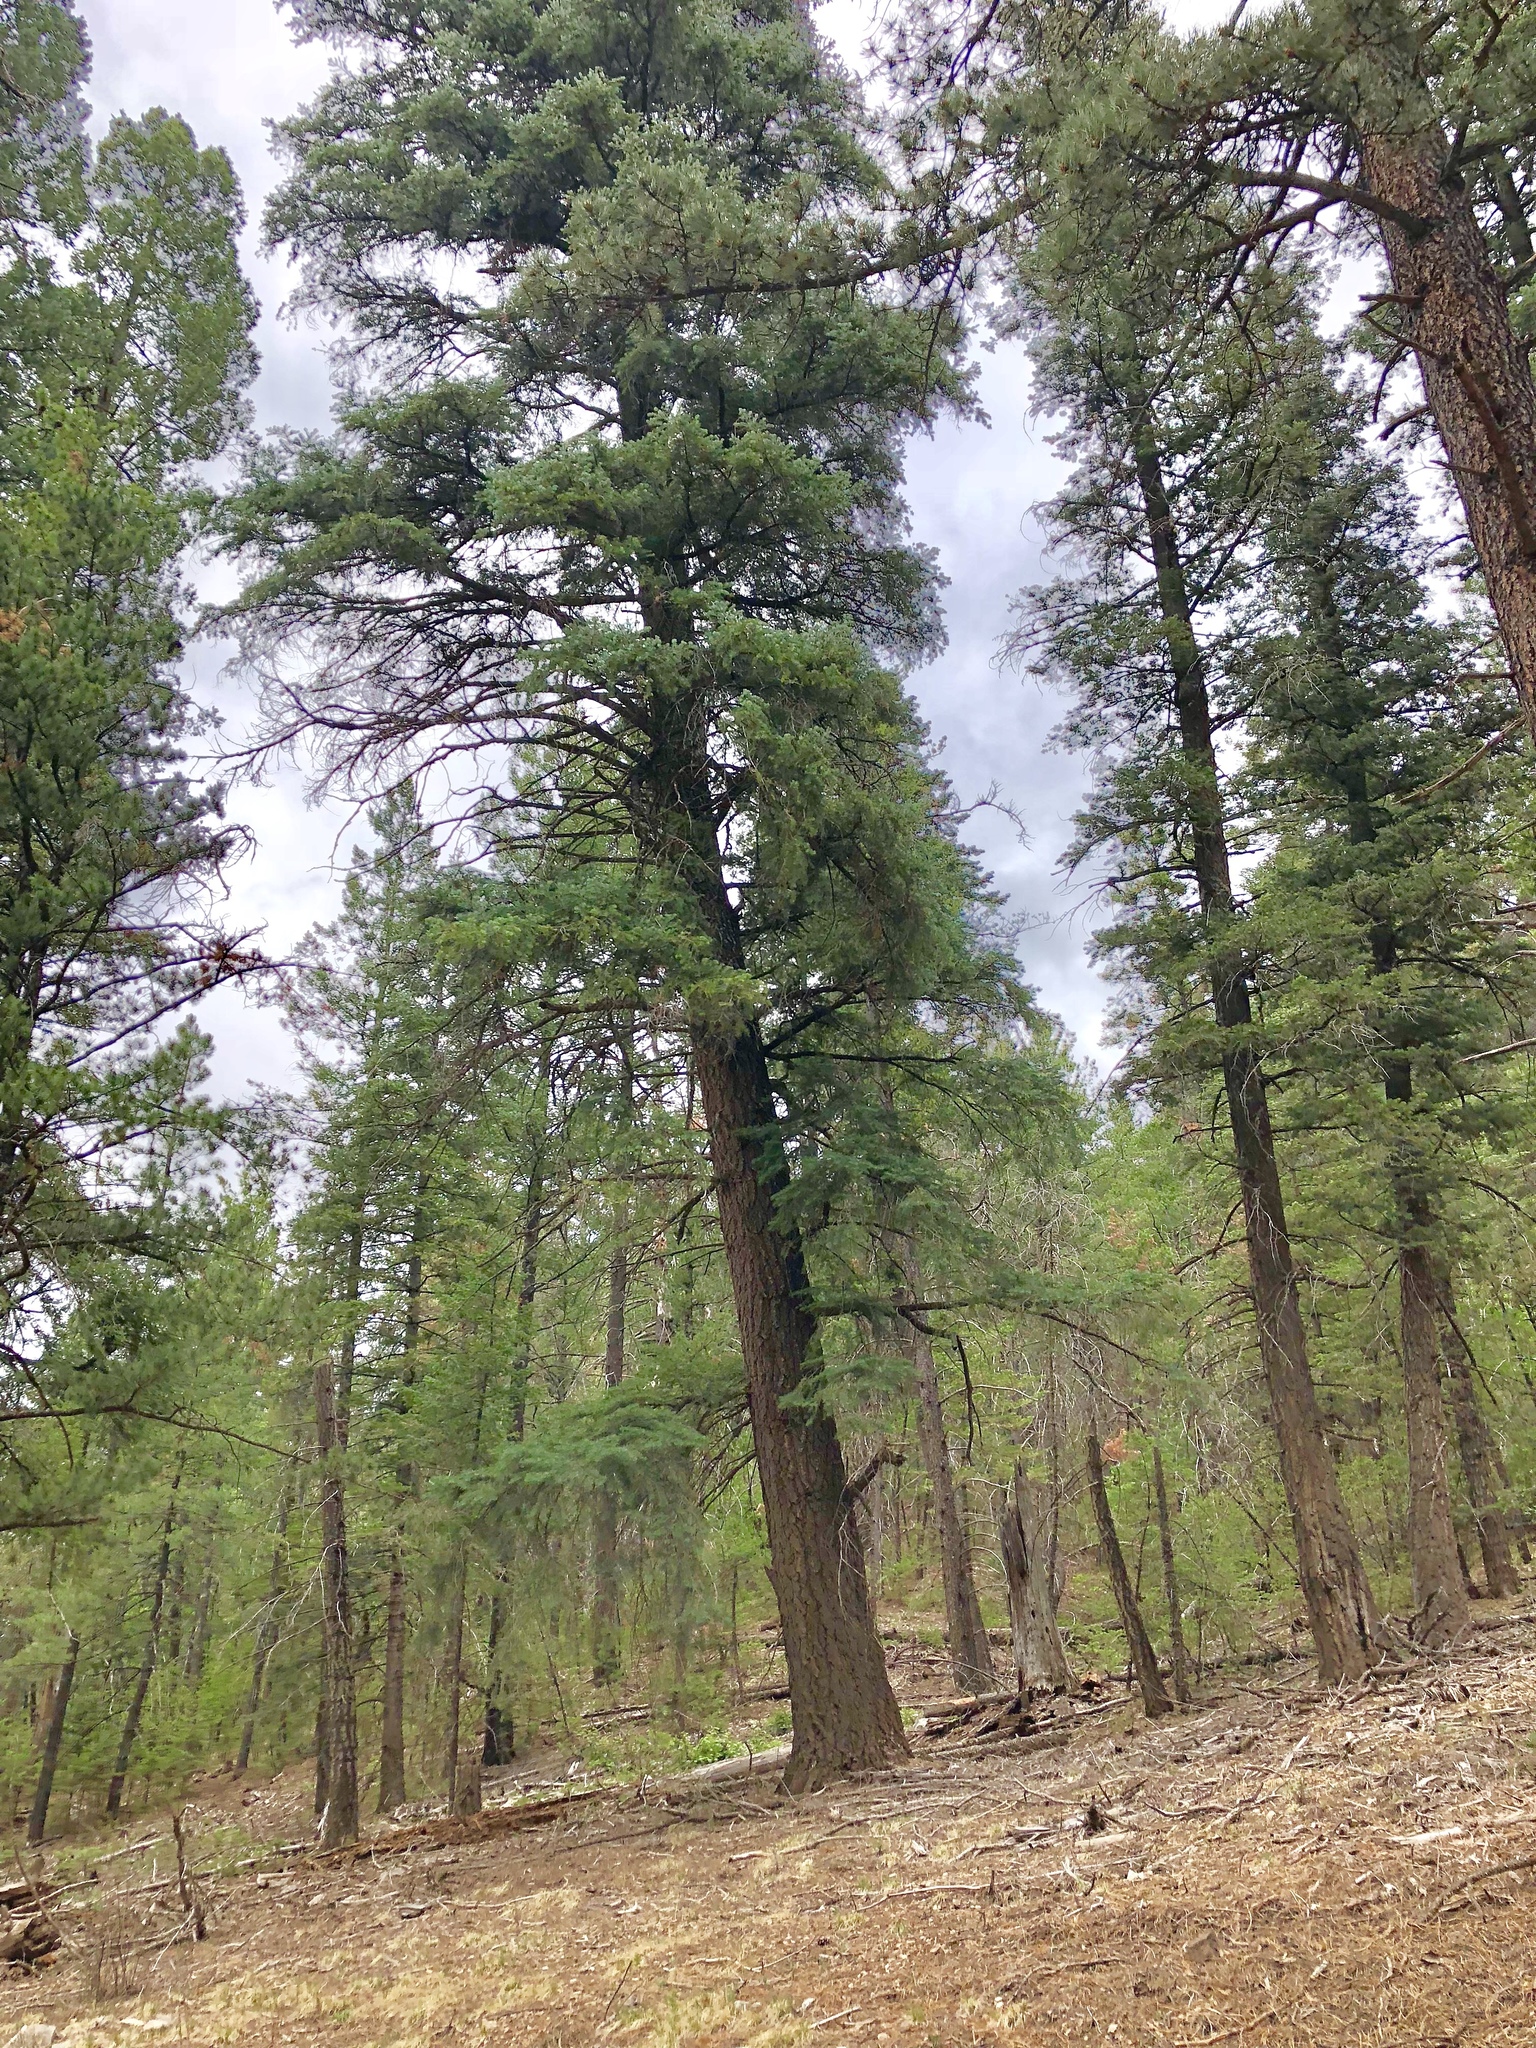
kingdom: Plantae
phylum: Tracheophyta
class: Pinopsida
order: Pinales
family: Pinaceae
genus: Pseudotsuga
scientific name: Pseudotsuga menziesii
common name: Douglas fir
